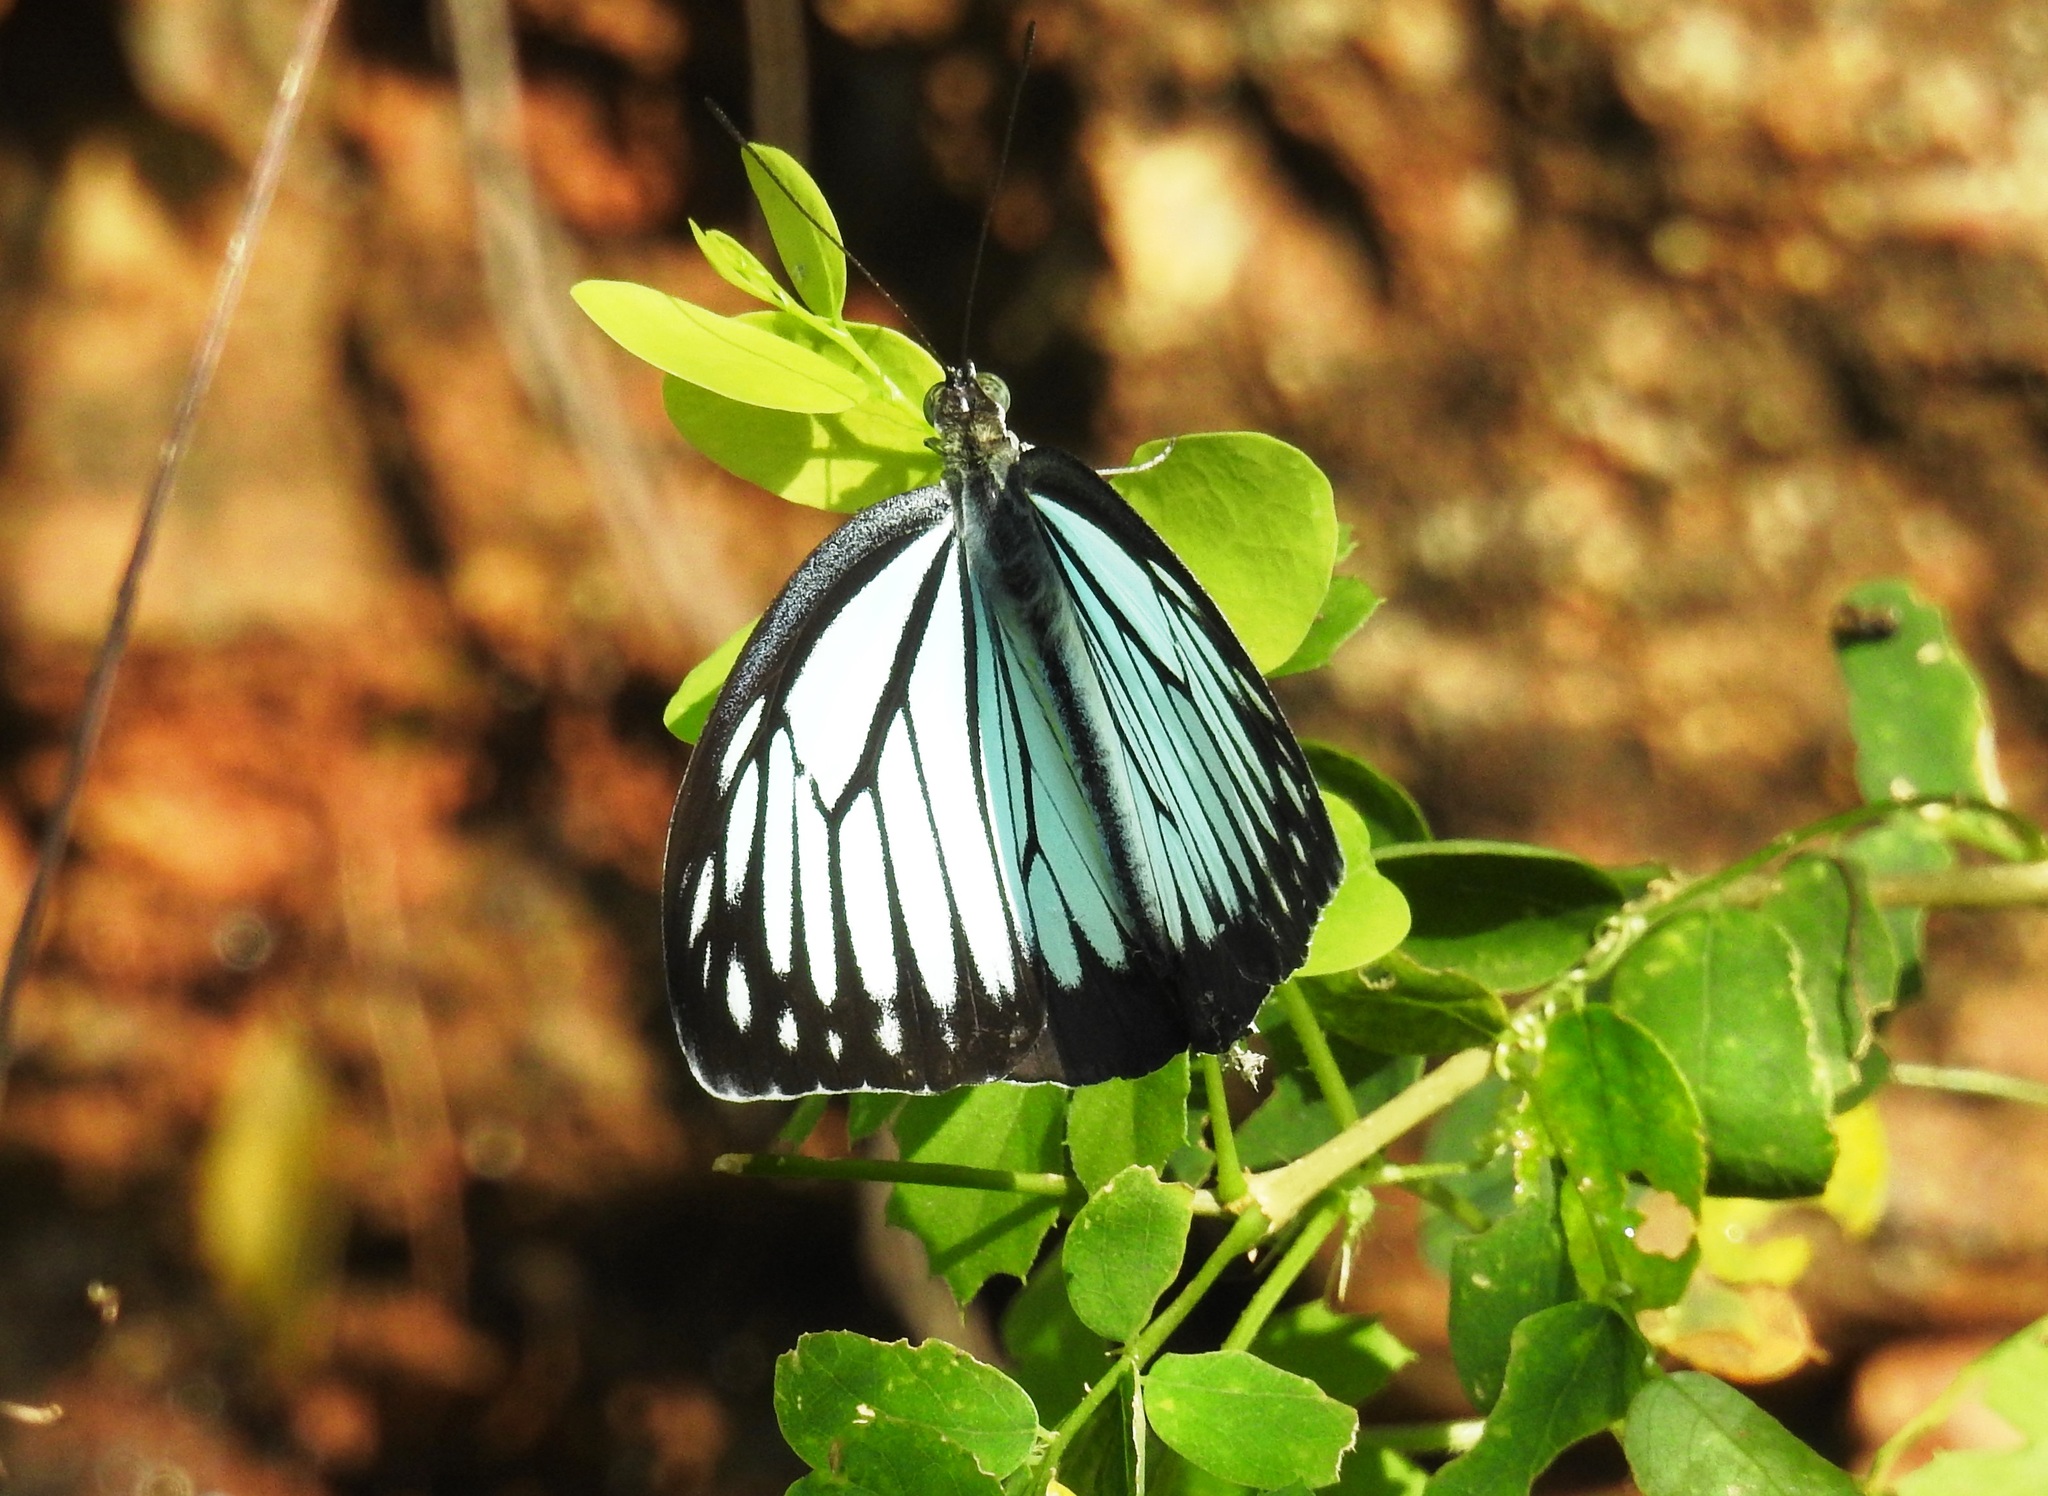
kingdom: Animalia
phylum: Arthropoda
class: Insecta
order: Lepidoptera
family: Pieridae
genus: Pareronia
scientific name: Pareronia hippia
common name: Indian wanderer
